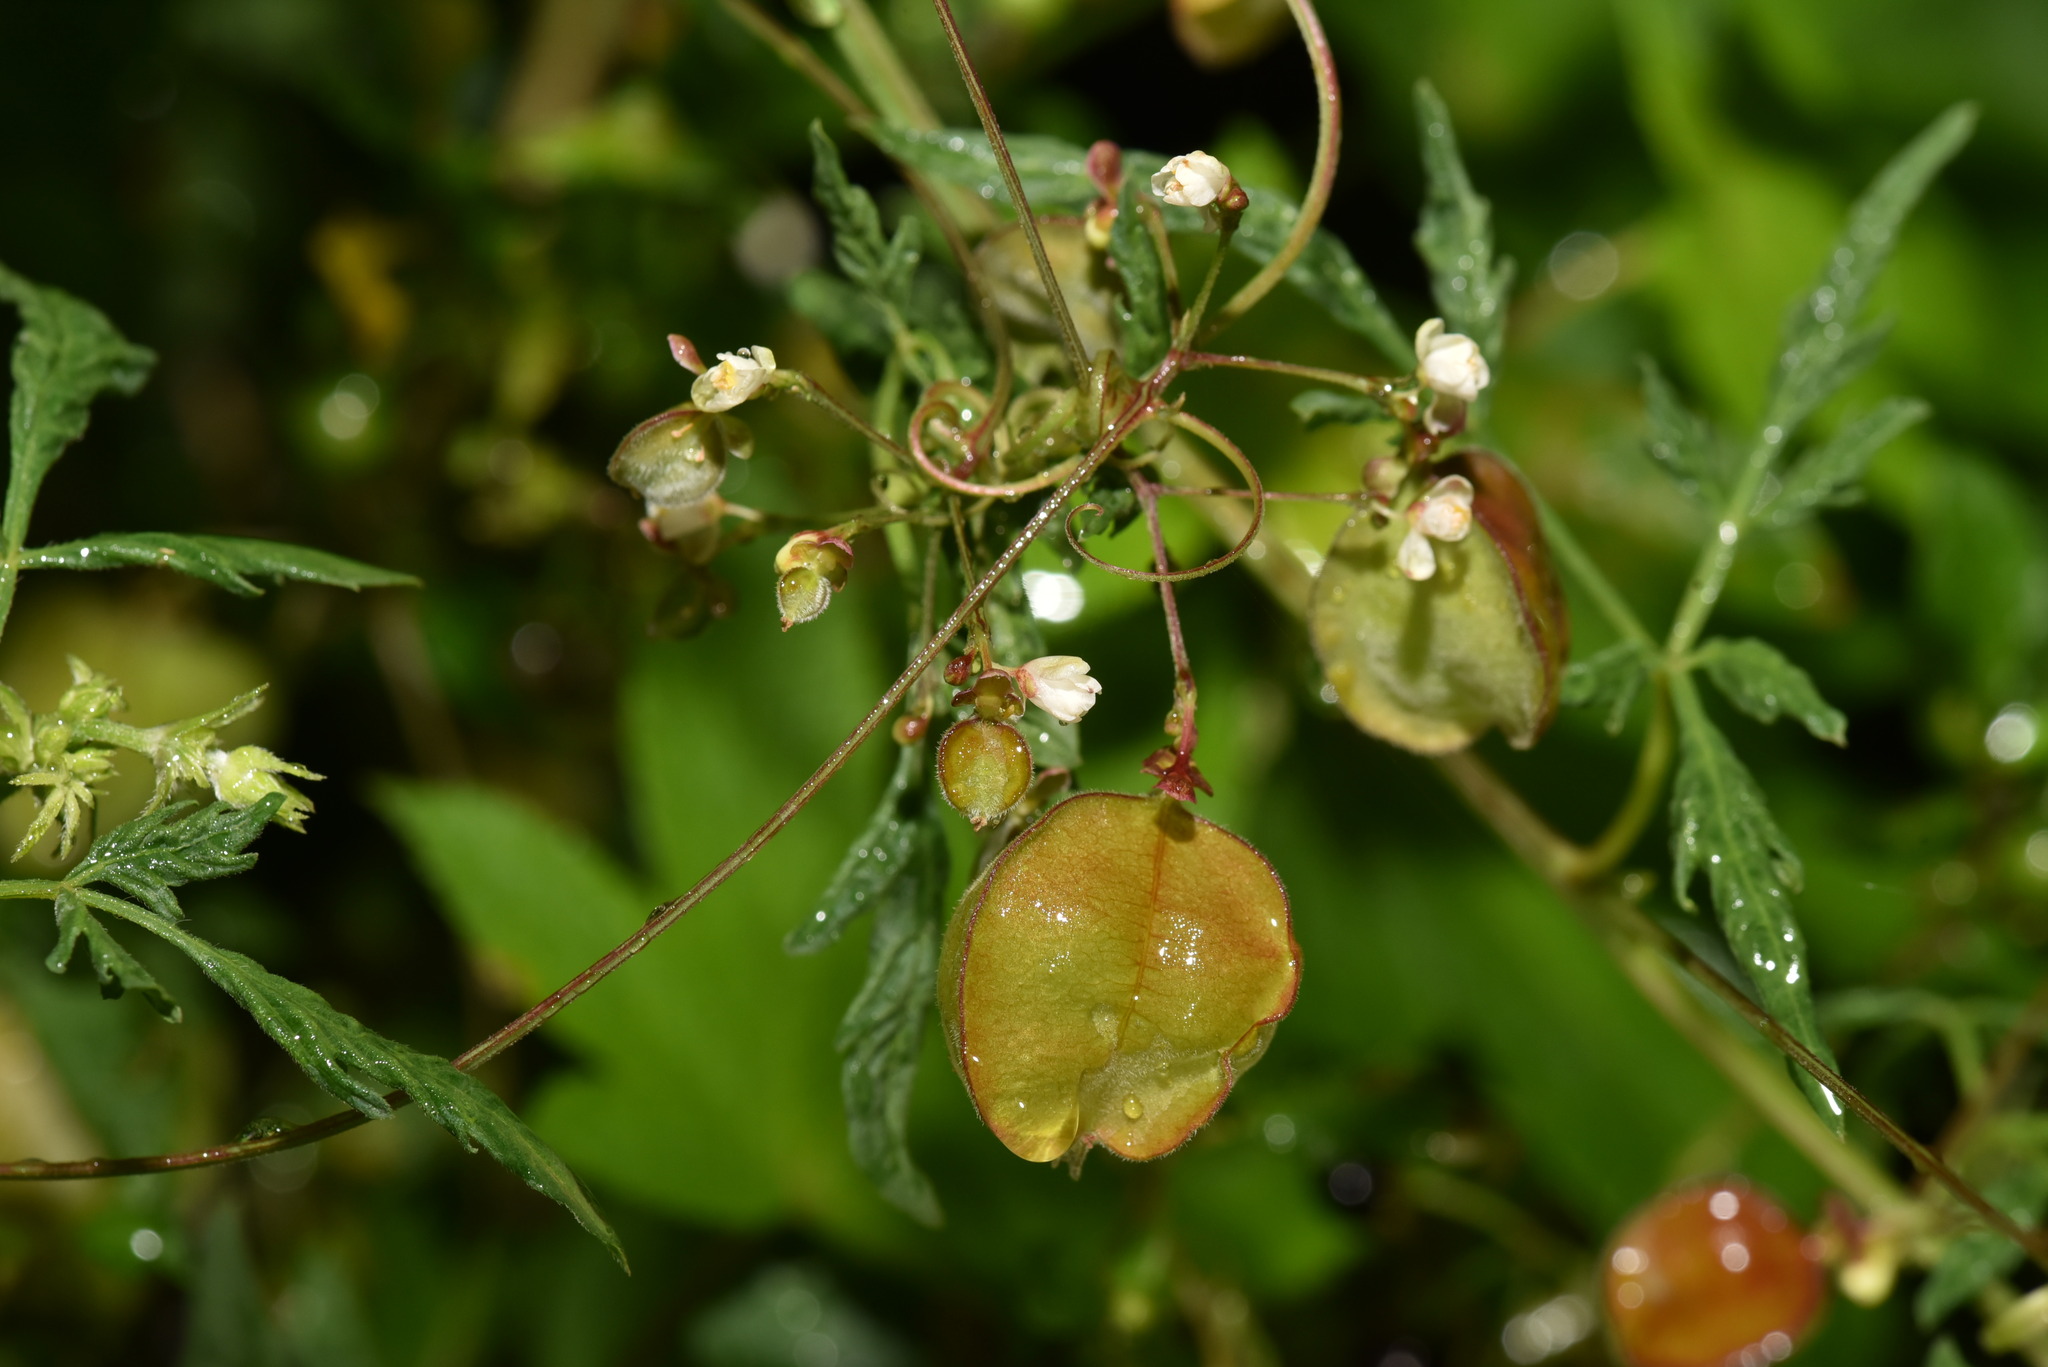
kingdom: Plantae
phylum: Tracheophyta
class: Magnoliopsida
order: Sapindales
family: Sapindaceae
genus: Cardiospermum
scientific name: Cardiospermum halicacabum
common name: Balloon vine
